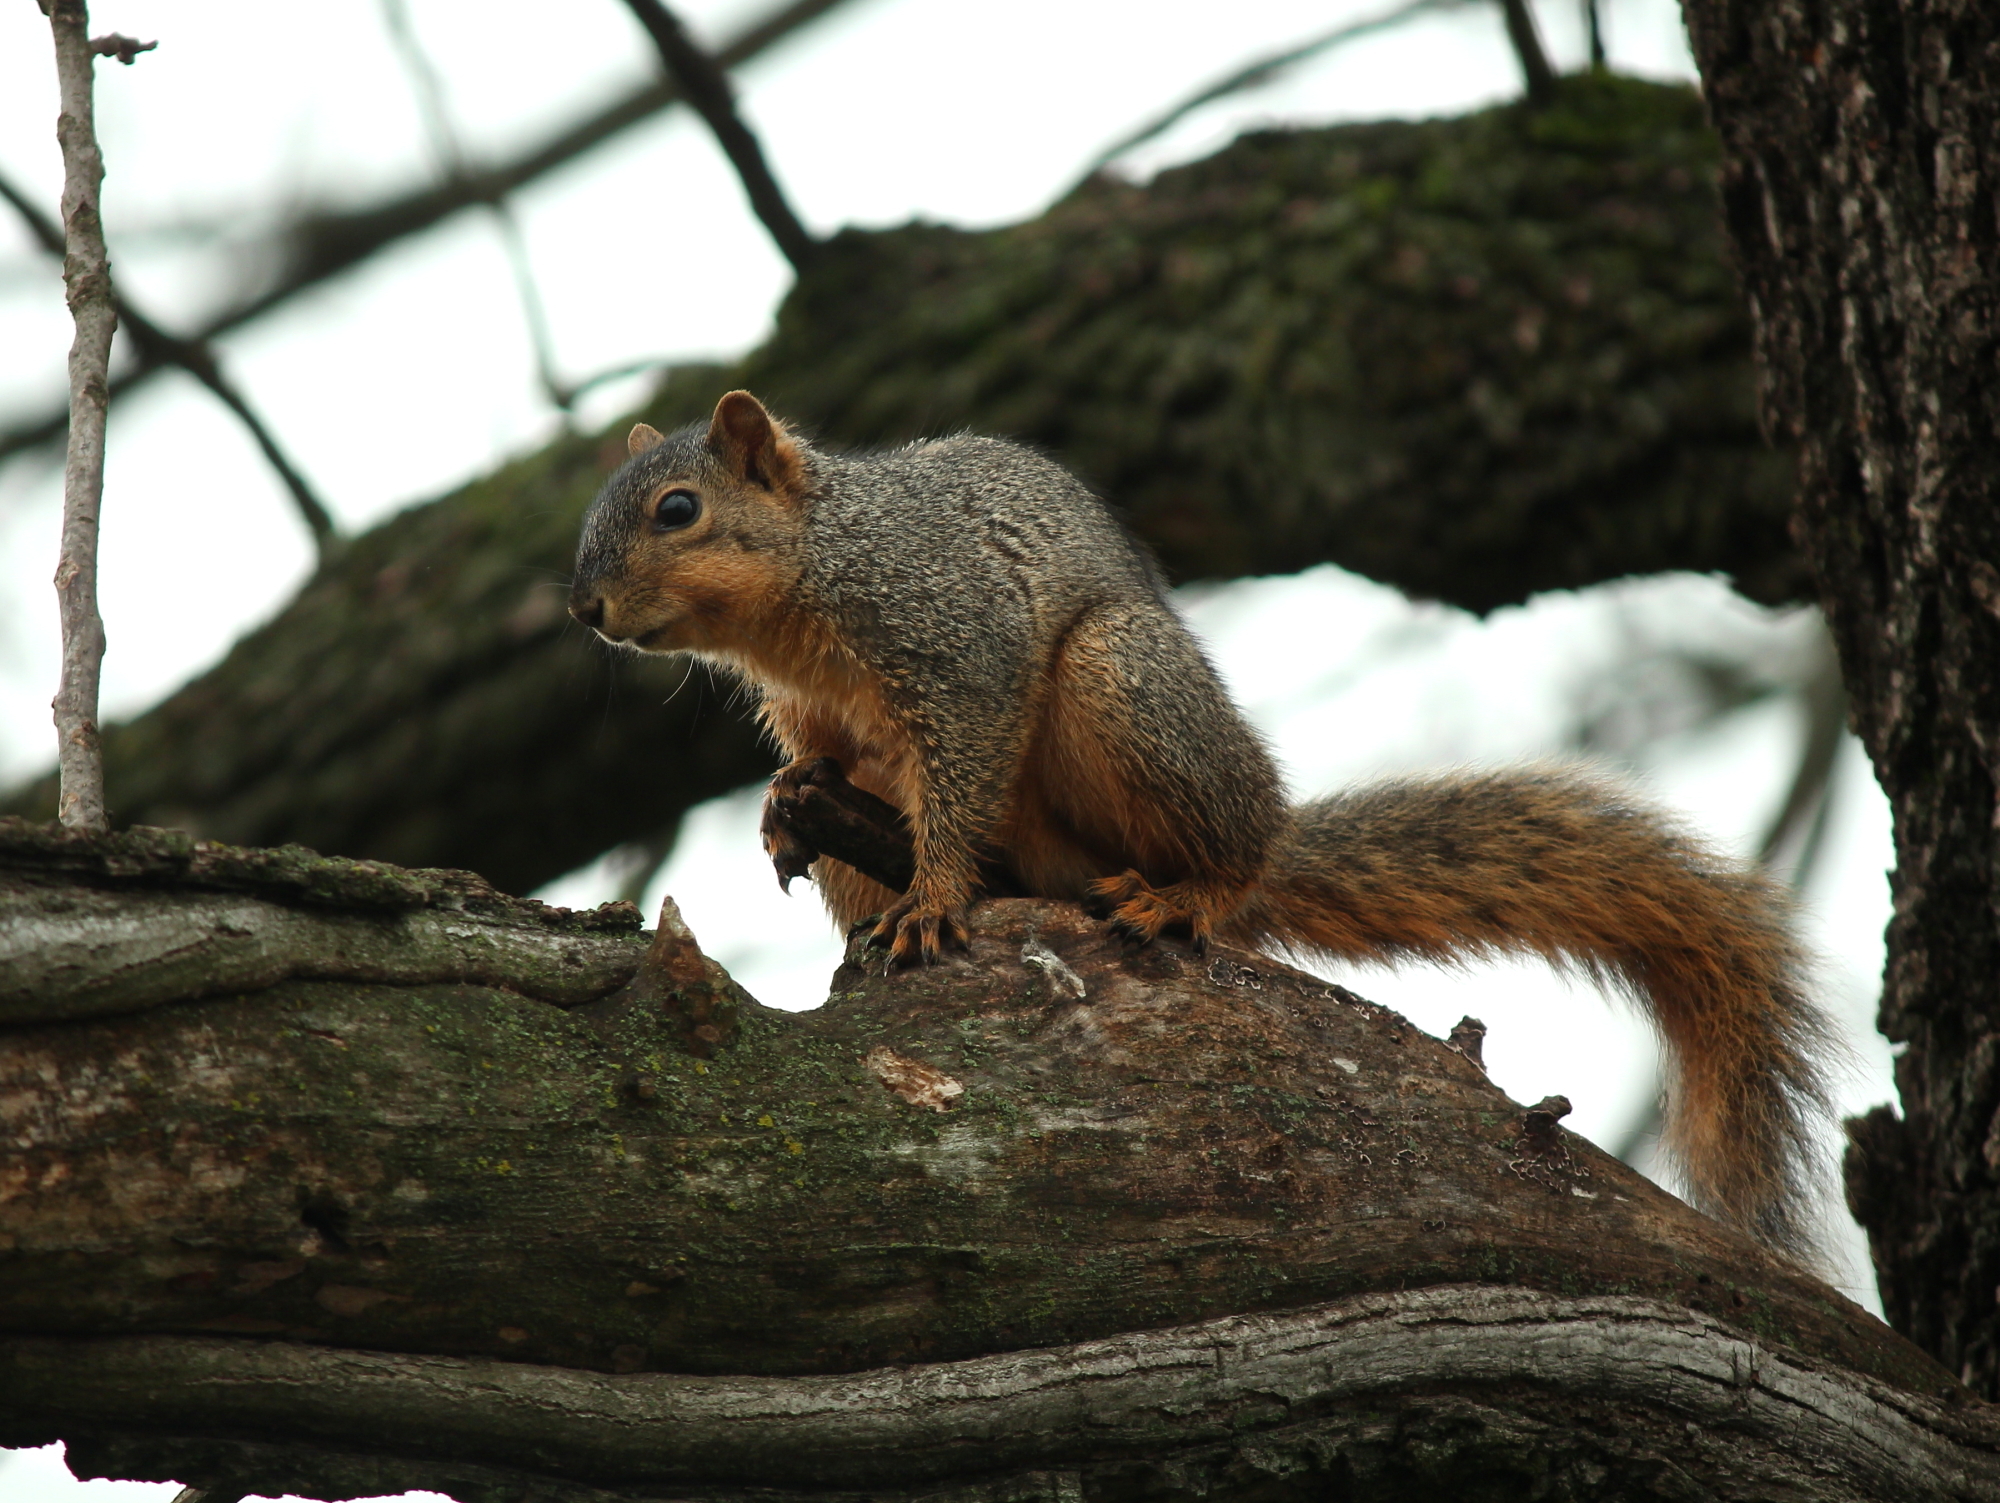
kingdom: Animalia
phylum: Chordata
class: Mammalia
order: Rodentia
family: Sciuridae
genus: Sciurus
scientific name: Sciurus niger
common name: Fox squirrel
